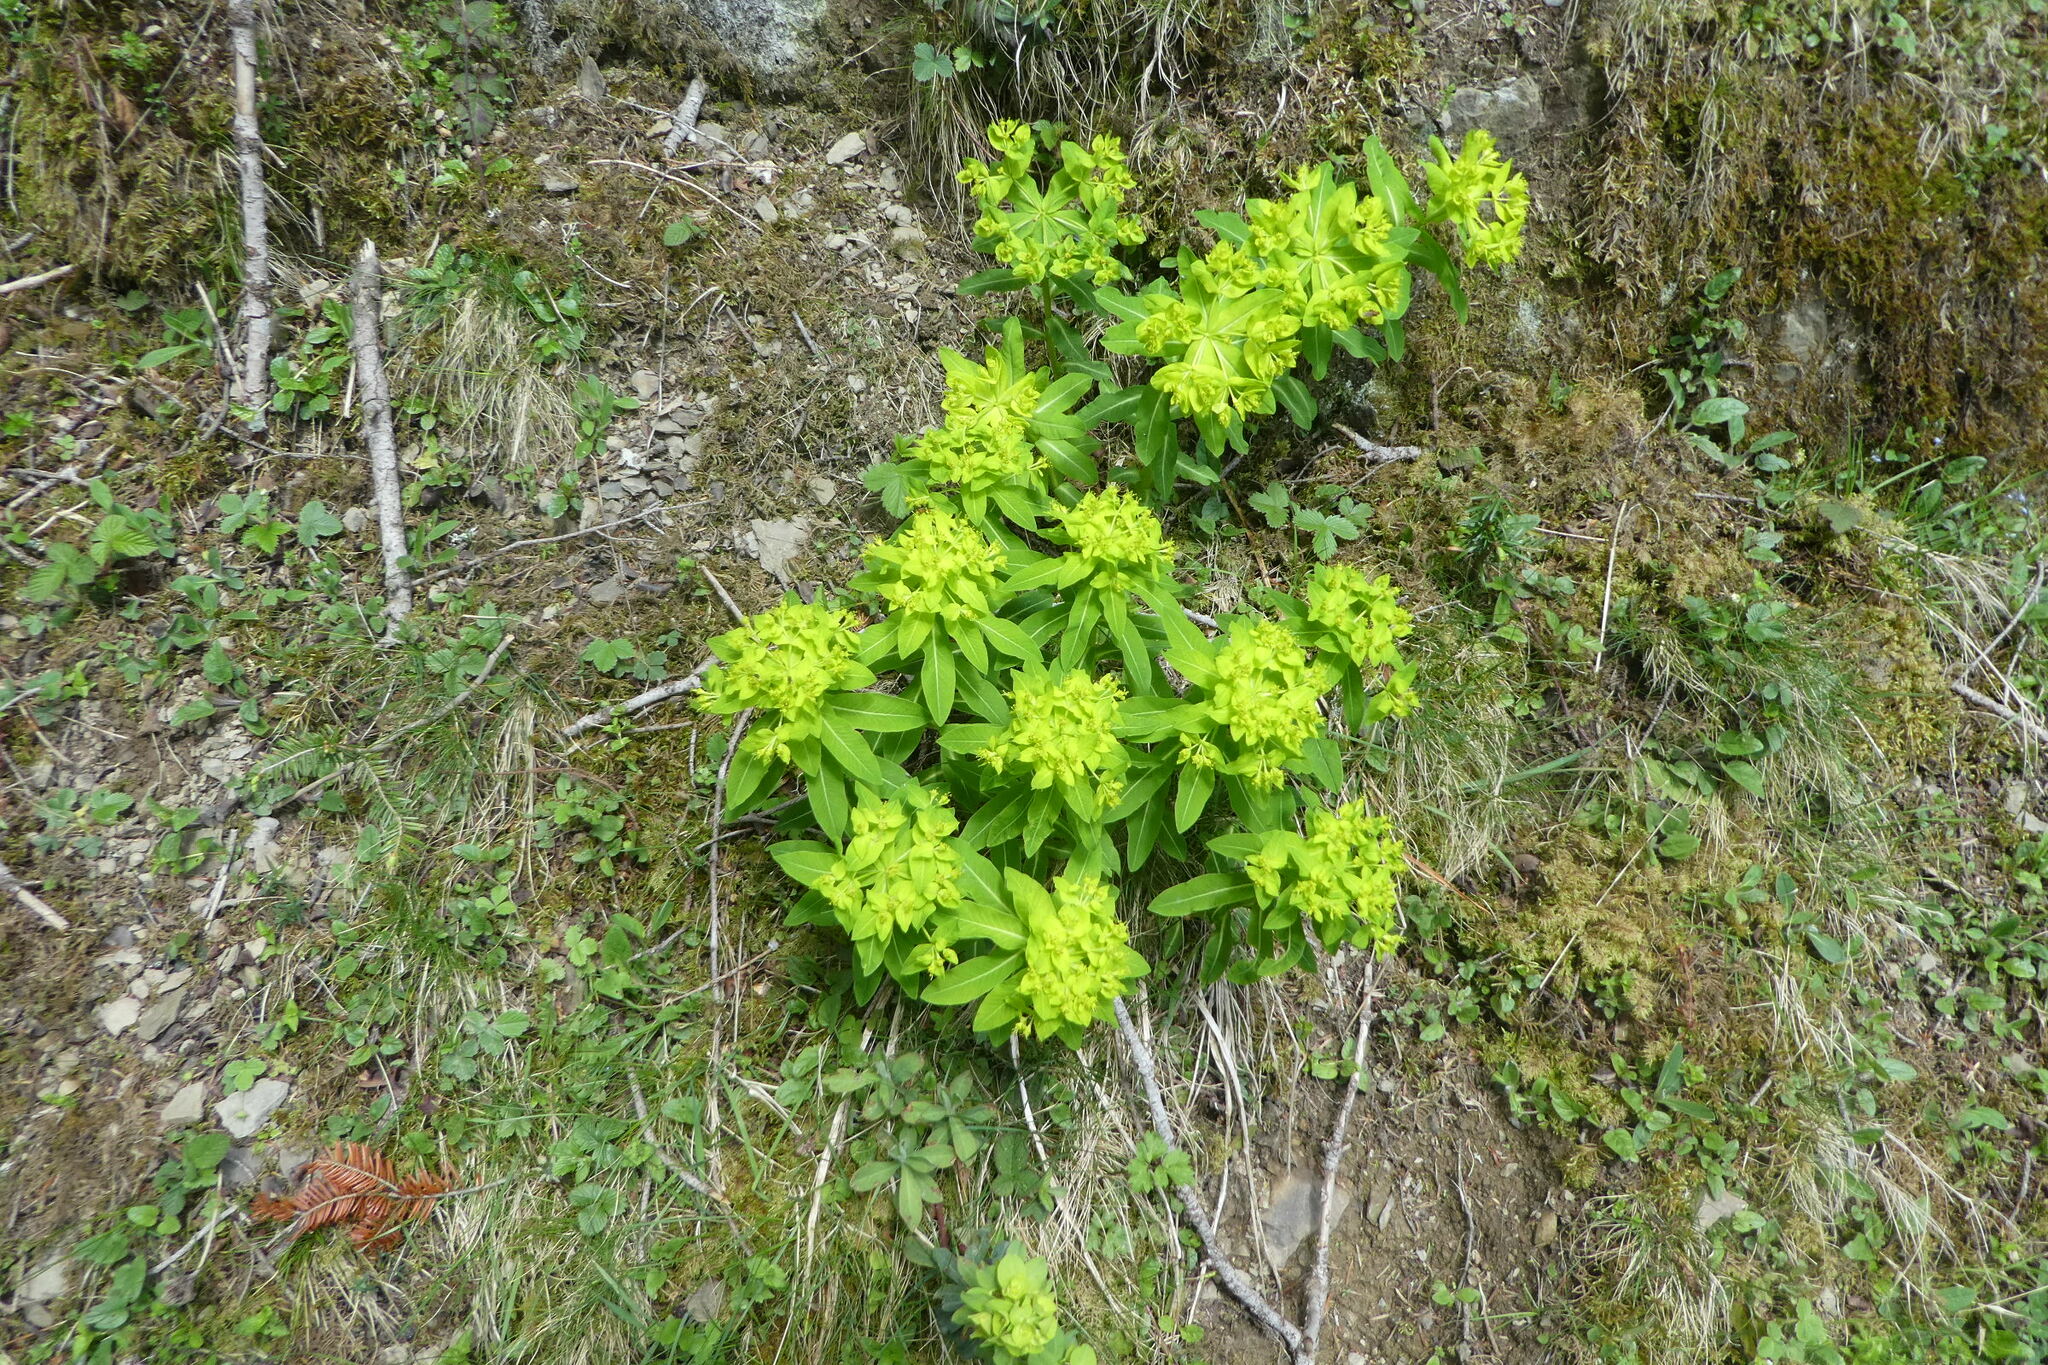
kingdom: Plantae
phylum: Tracheophyta
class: Magnoliopsida
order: Malpighiales
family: Euphorbiaceae
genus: Euphorbia
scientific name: Euphorbia hyberna
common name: Irish spurge
